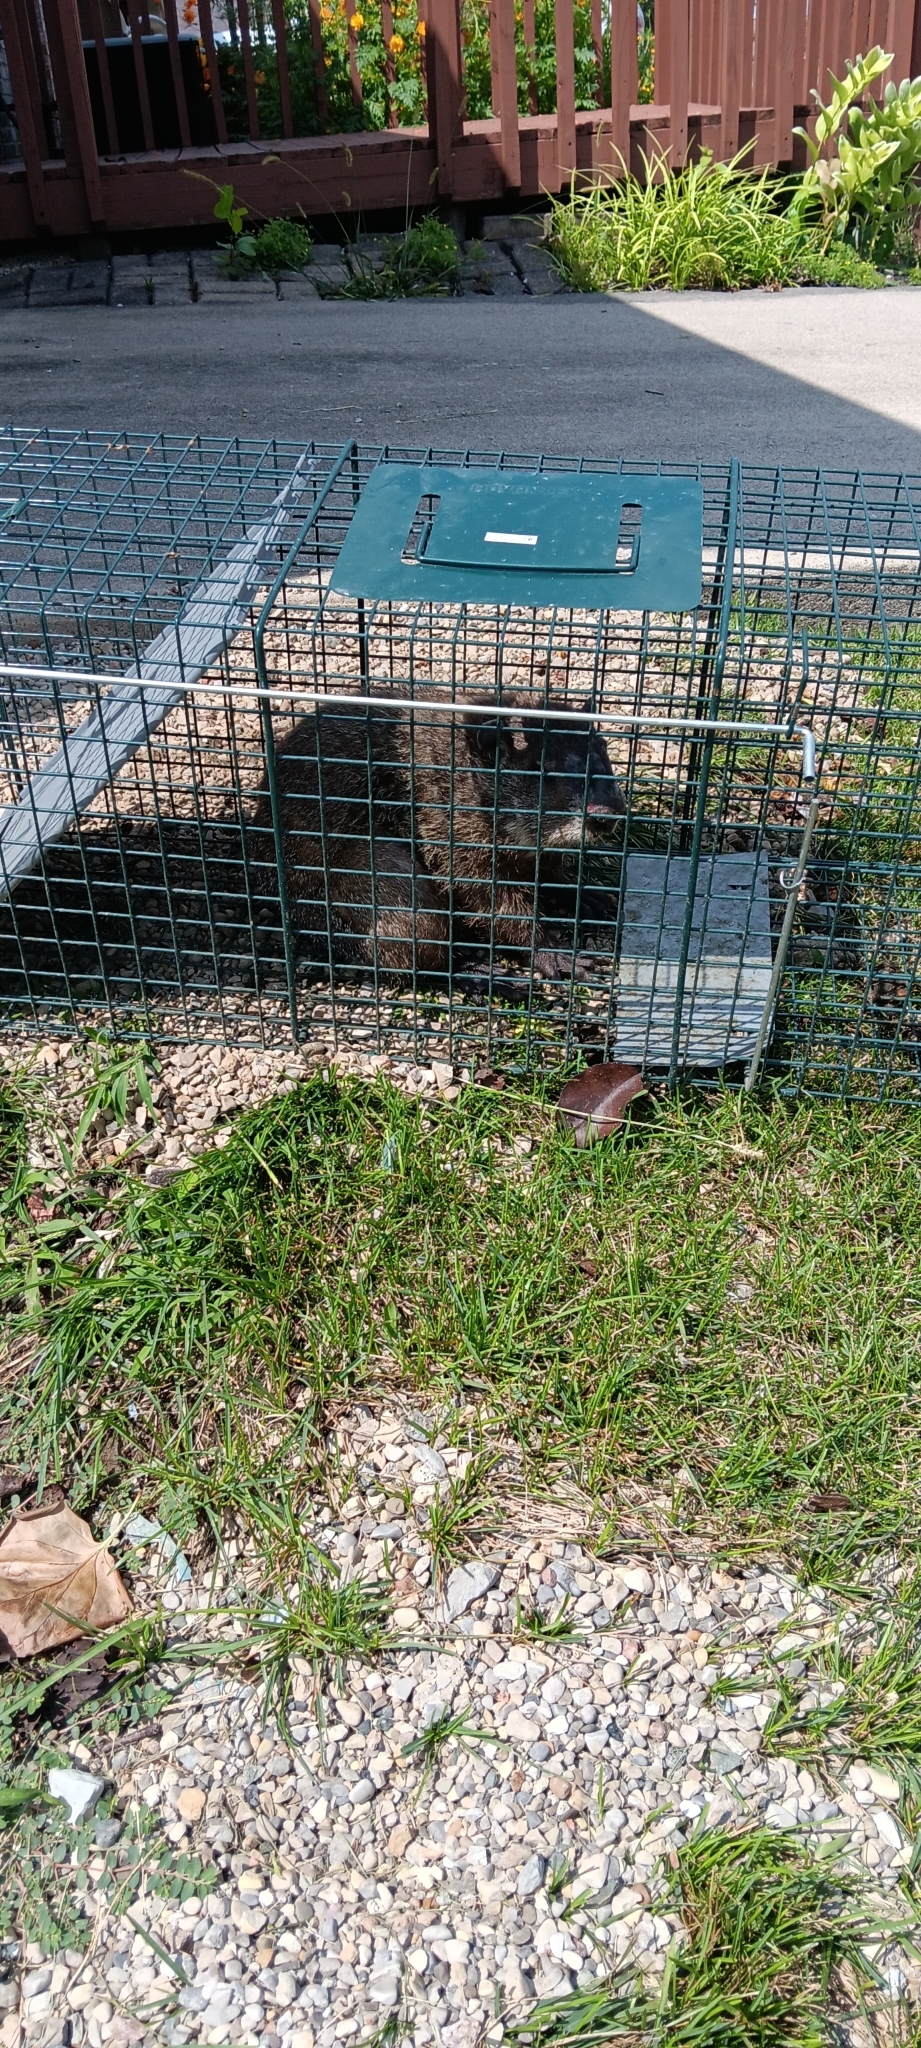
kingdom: Animalia
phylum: Chordata
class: Mammalia
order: Rodentia
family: Sciuridae
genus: Marmota
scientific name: Marmota monax
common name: Groundhog
